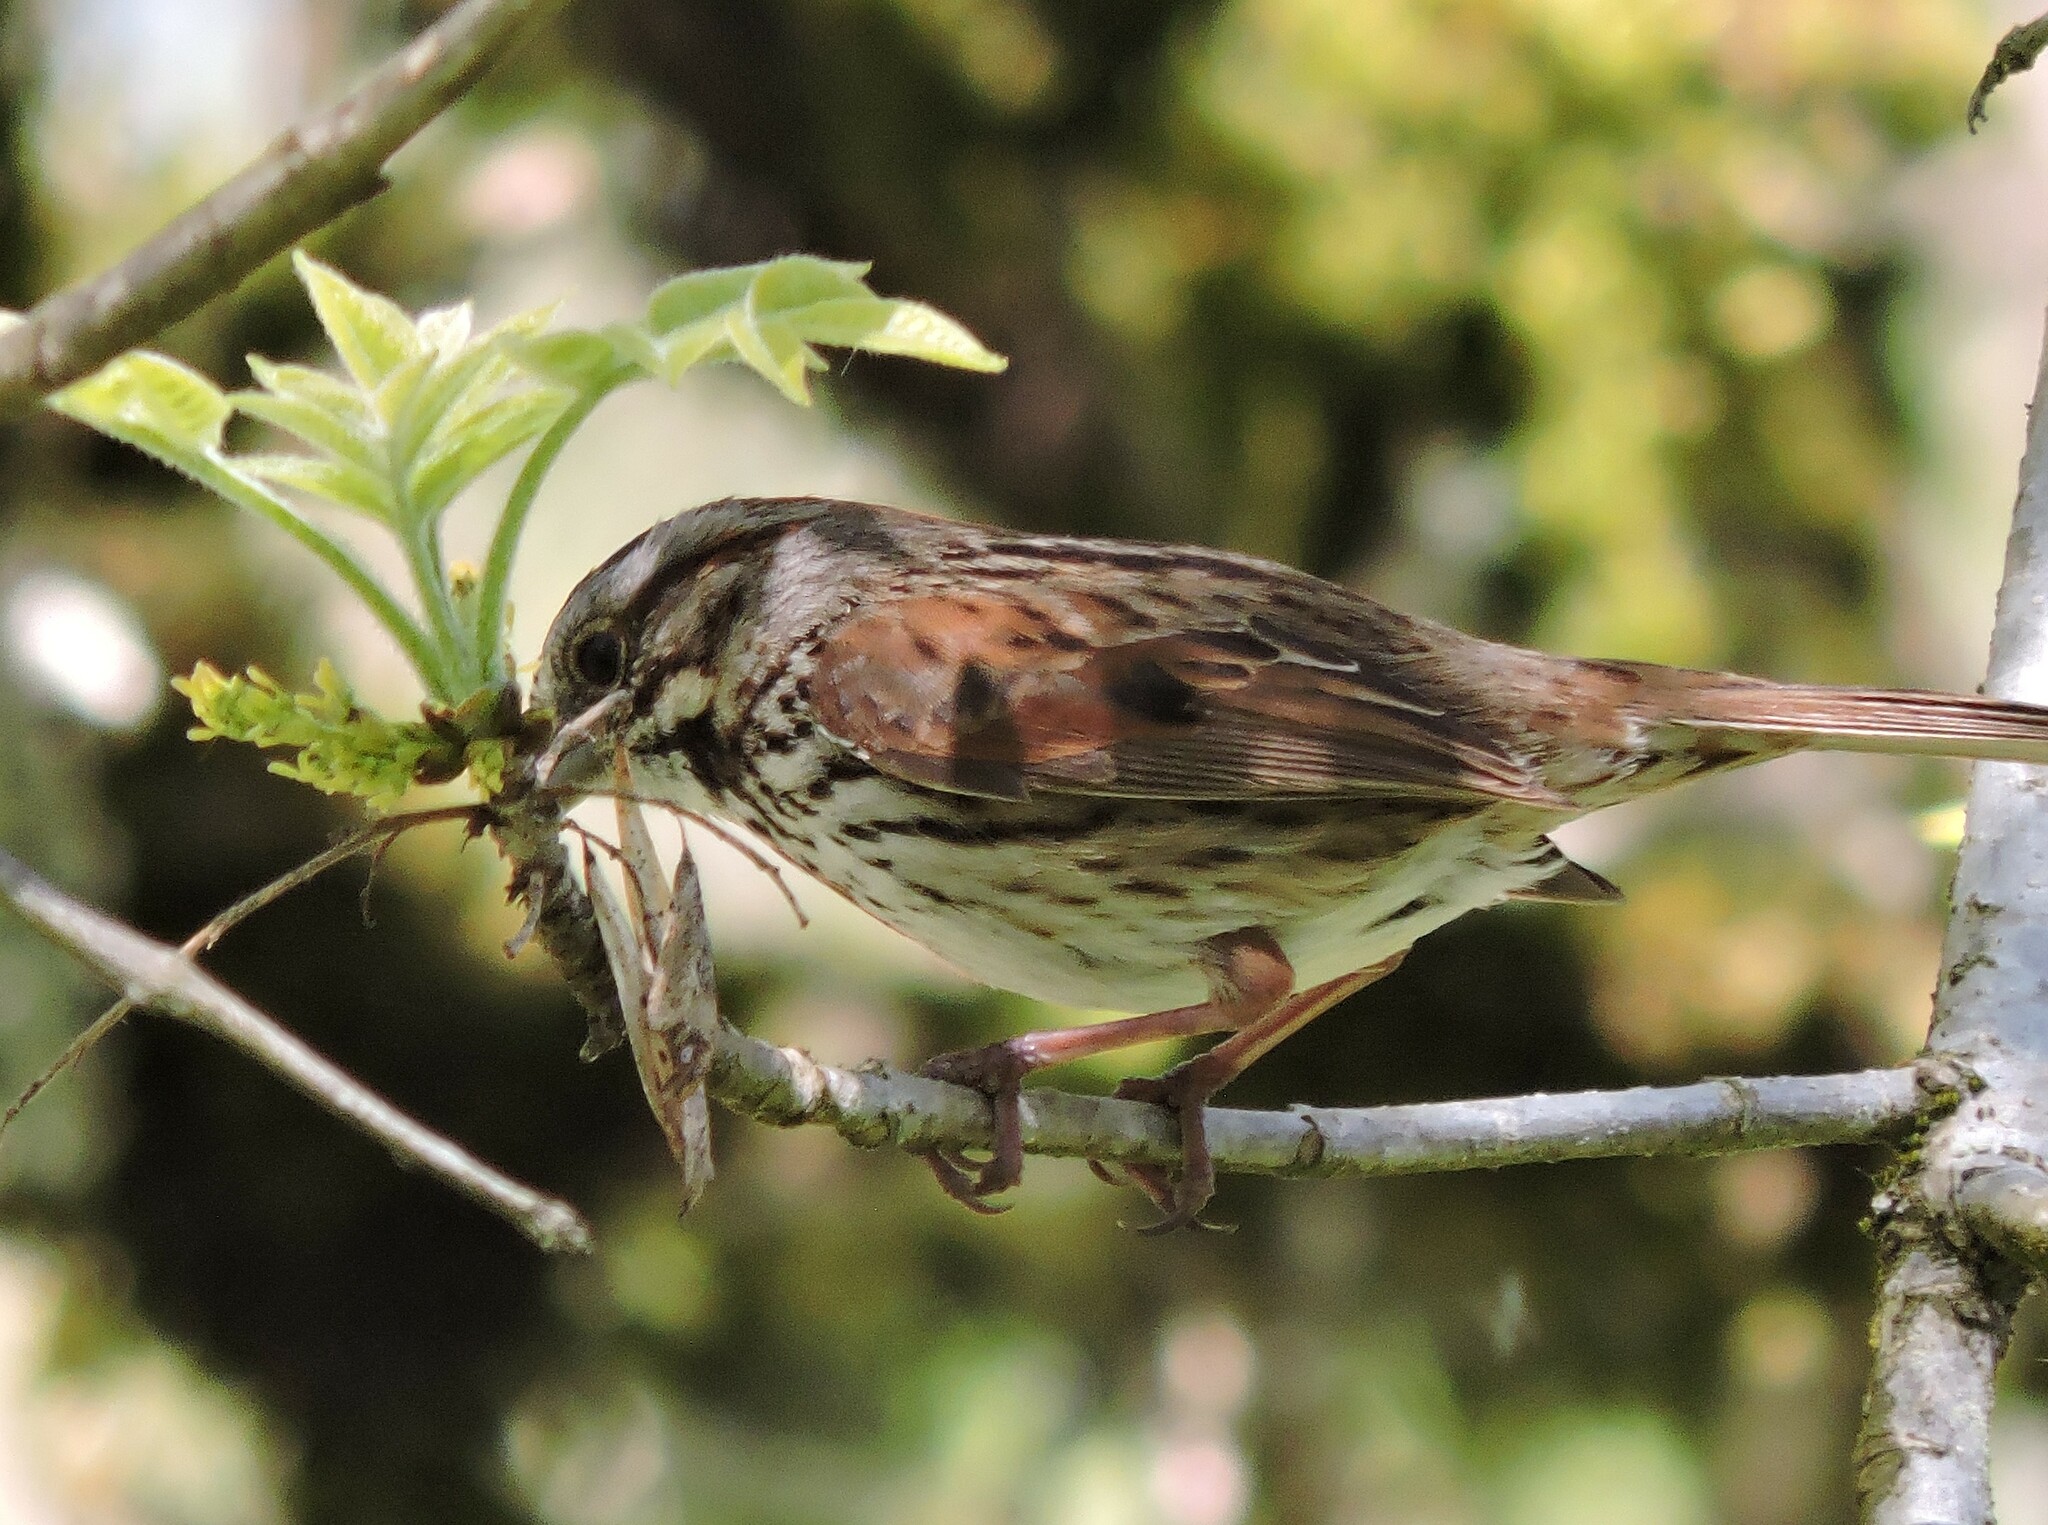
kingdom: Animalia
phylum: Chordata
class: Aves
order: Passeriformes
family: Passerellidae
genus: Melospiza
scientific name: Melospiza melodia
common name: Song sparrow
